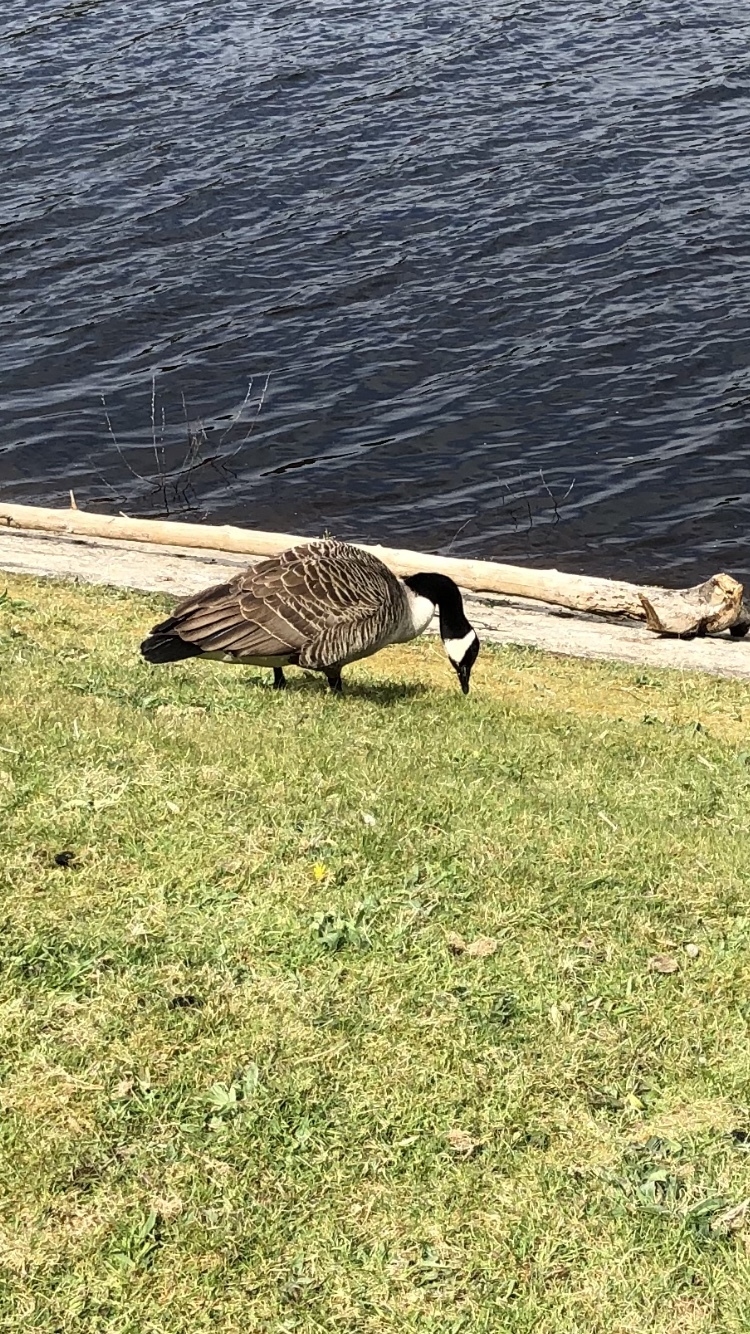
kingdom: Animalia
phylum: Chordata
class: Aves
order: Anseriformes
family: Anatidae
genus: Branta
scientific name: Branta canadensis
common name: Canada goose
